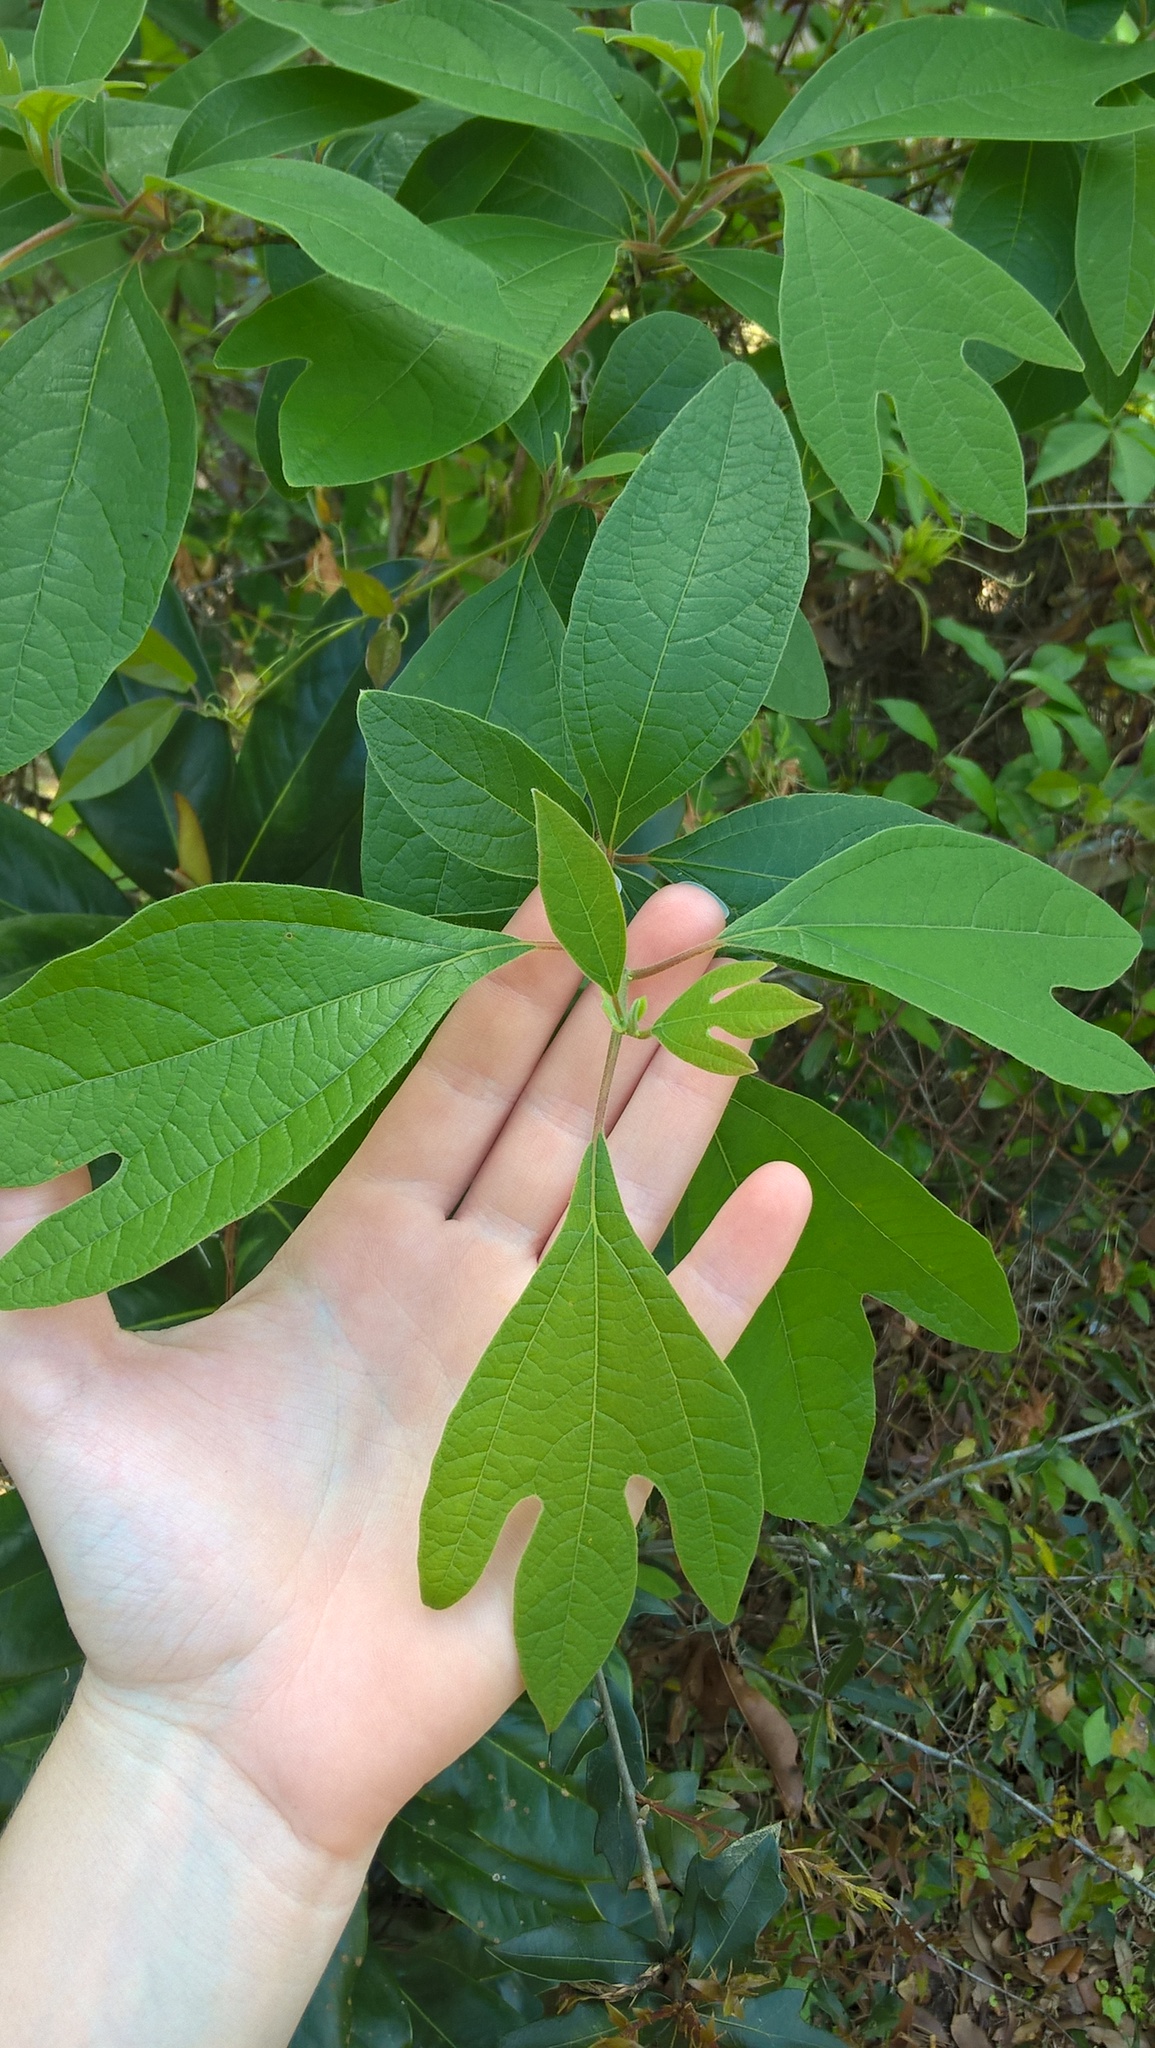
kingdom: Plantae
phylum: Tracheophyta
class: Magnoliopsida
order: Laurales
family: Lauraceae
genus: Sassafras
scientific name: Sassafras albidum
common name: Sassafras
